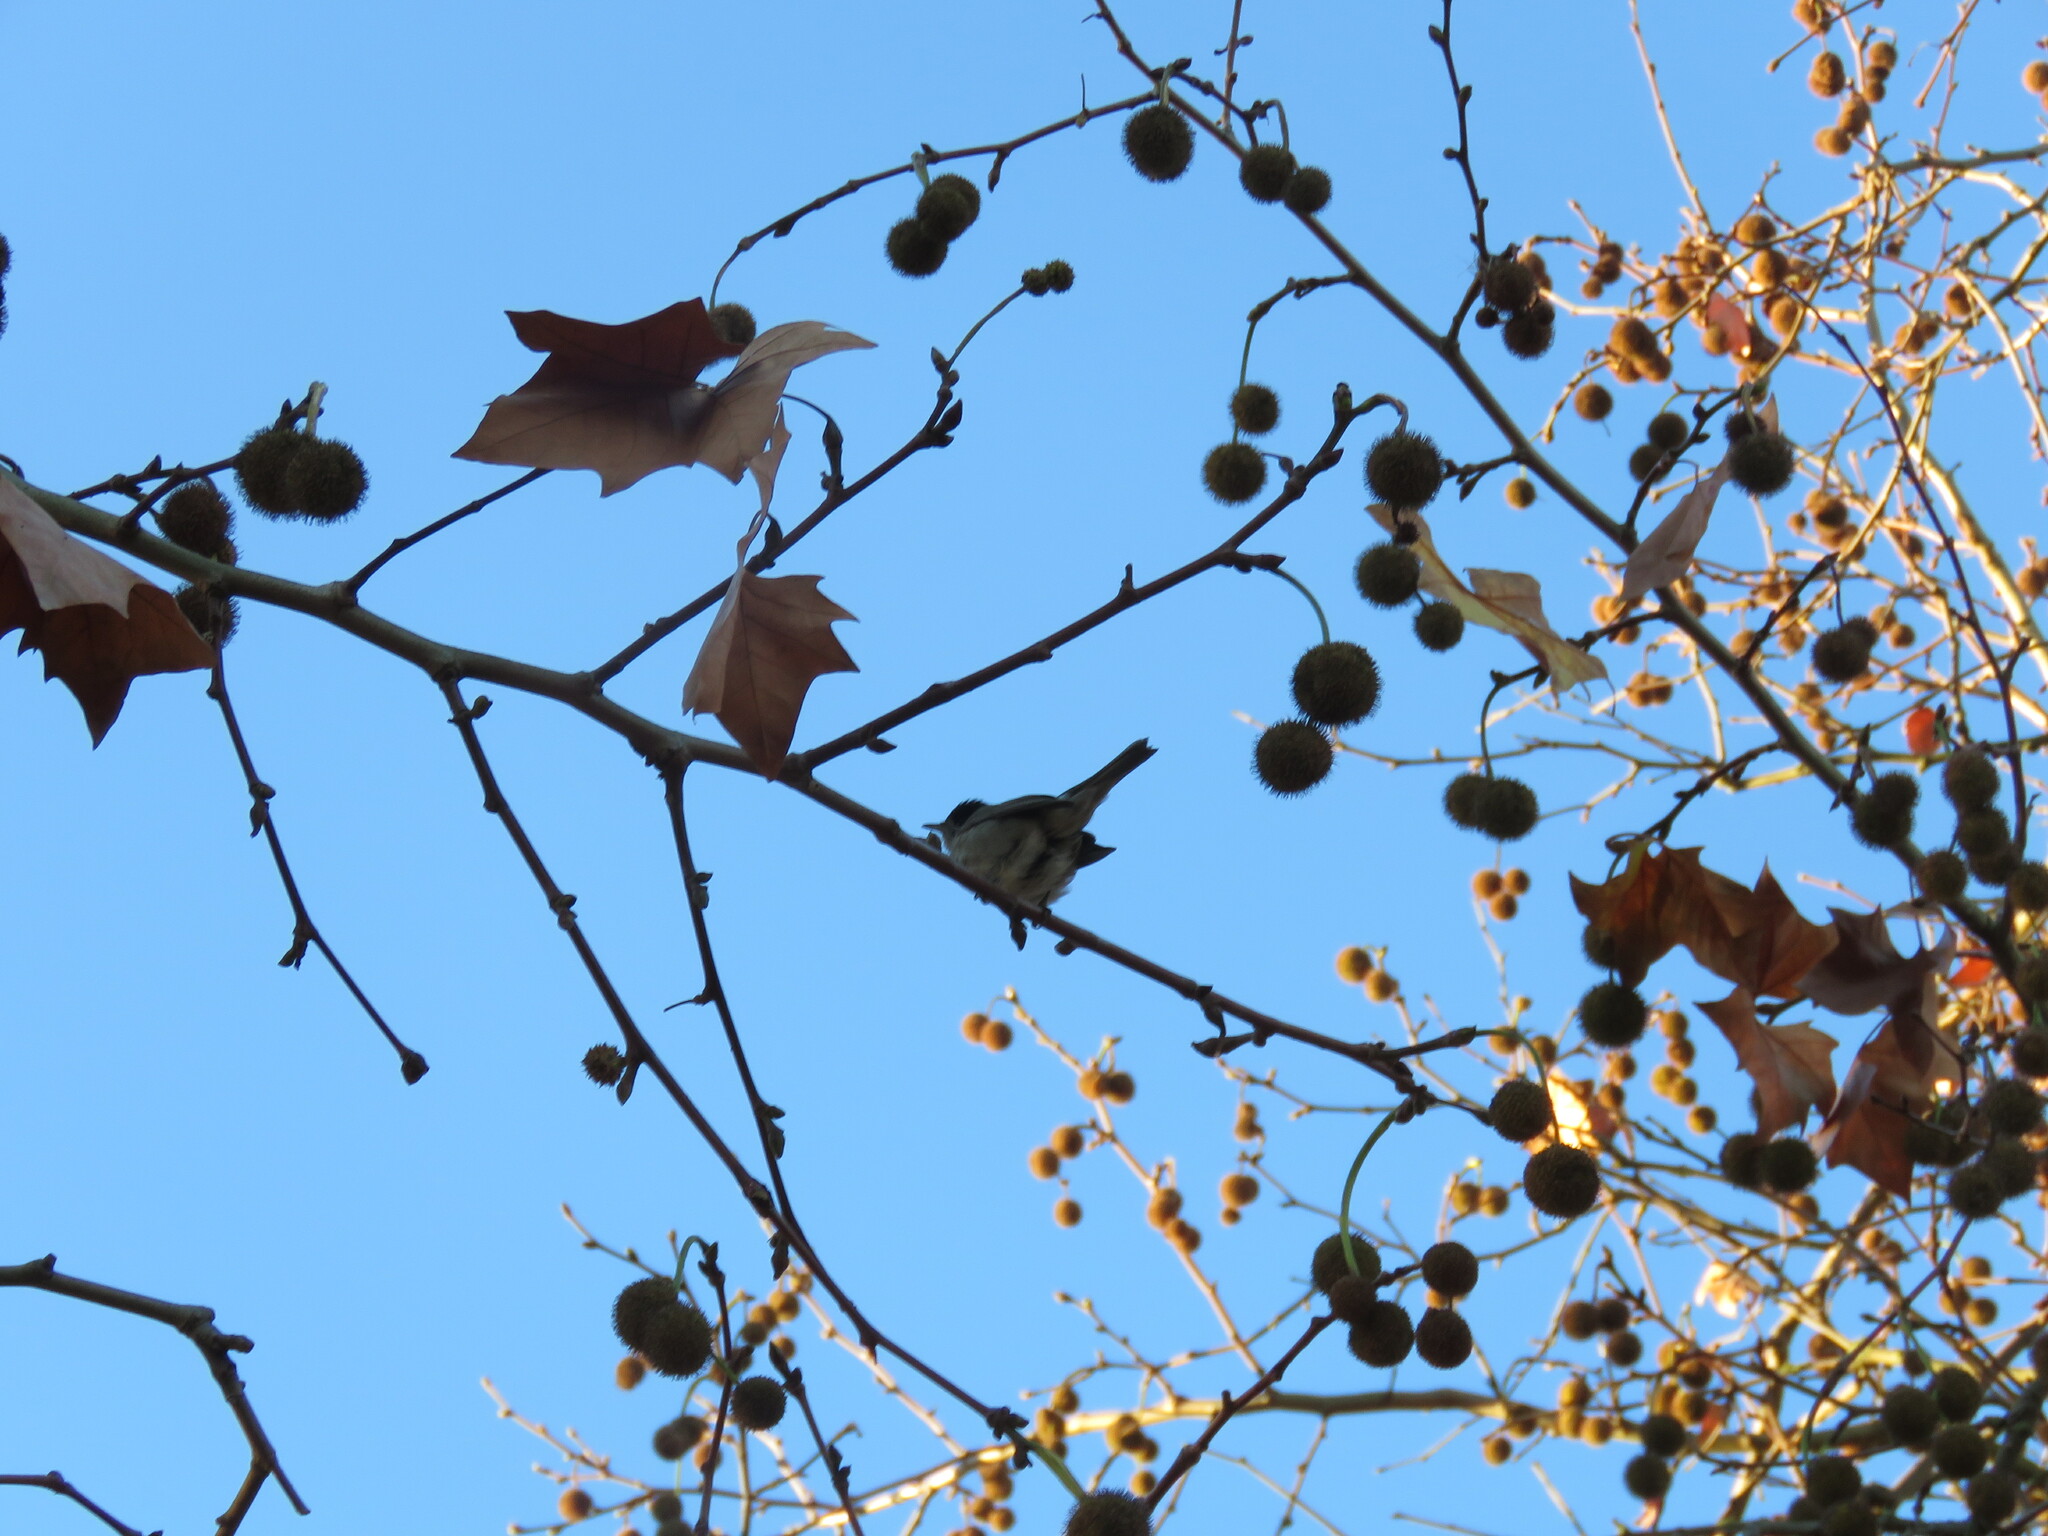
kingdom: Animalia
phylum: Chordata
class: Aves
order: Passeriformes
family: Sylviidae
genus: Sylvia
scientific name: Sylvia atricapilla
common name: Eurasian blackcap
